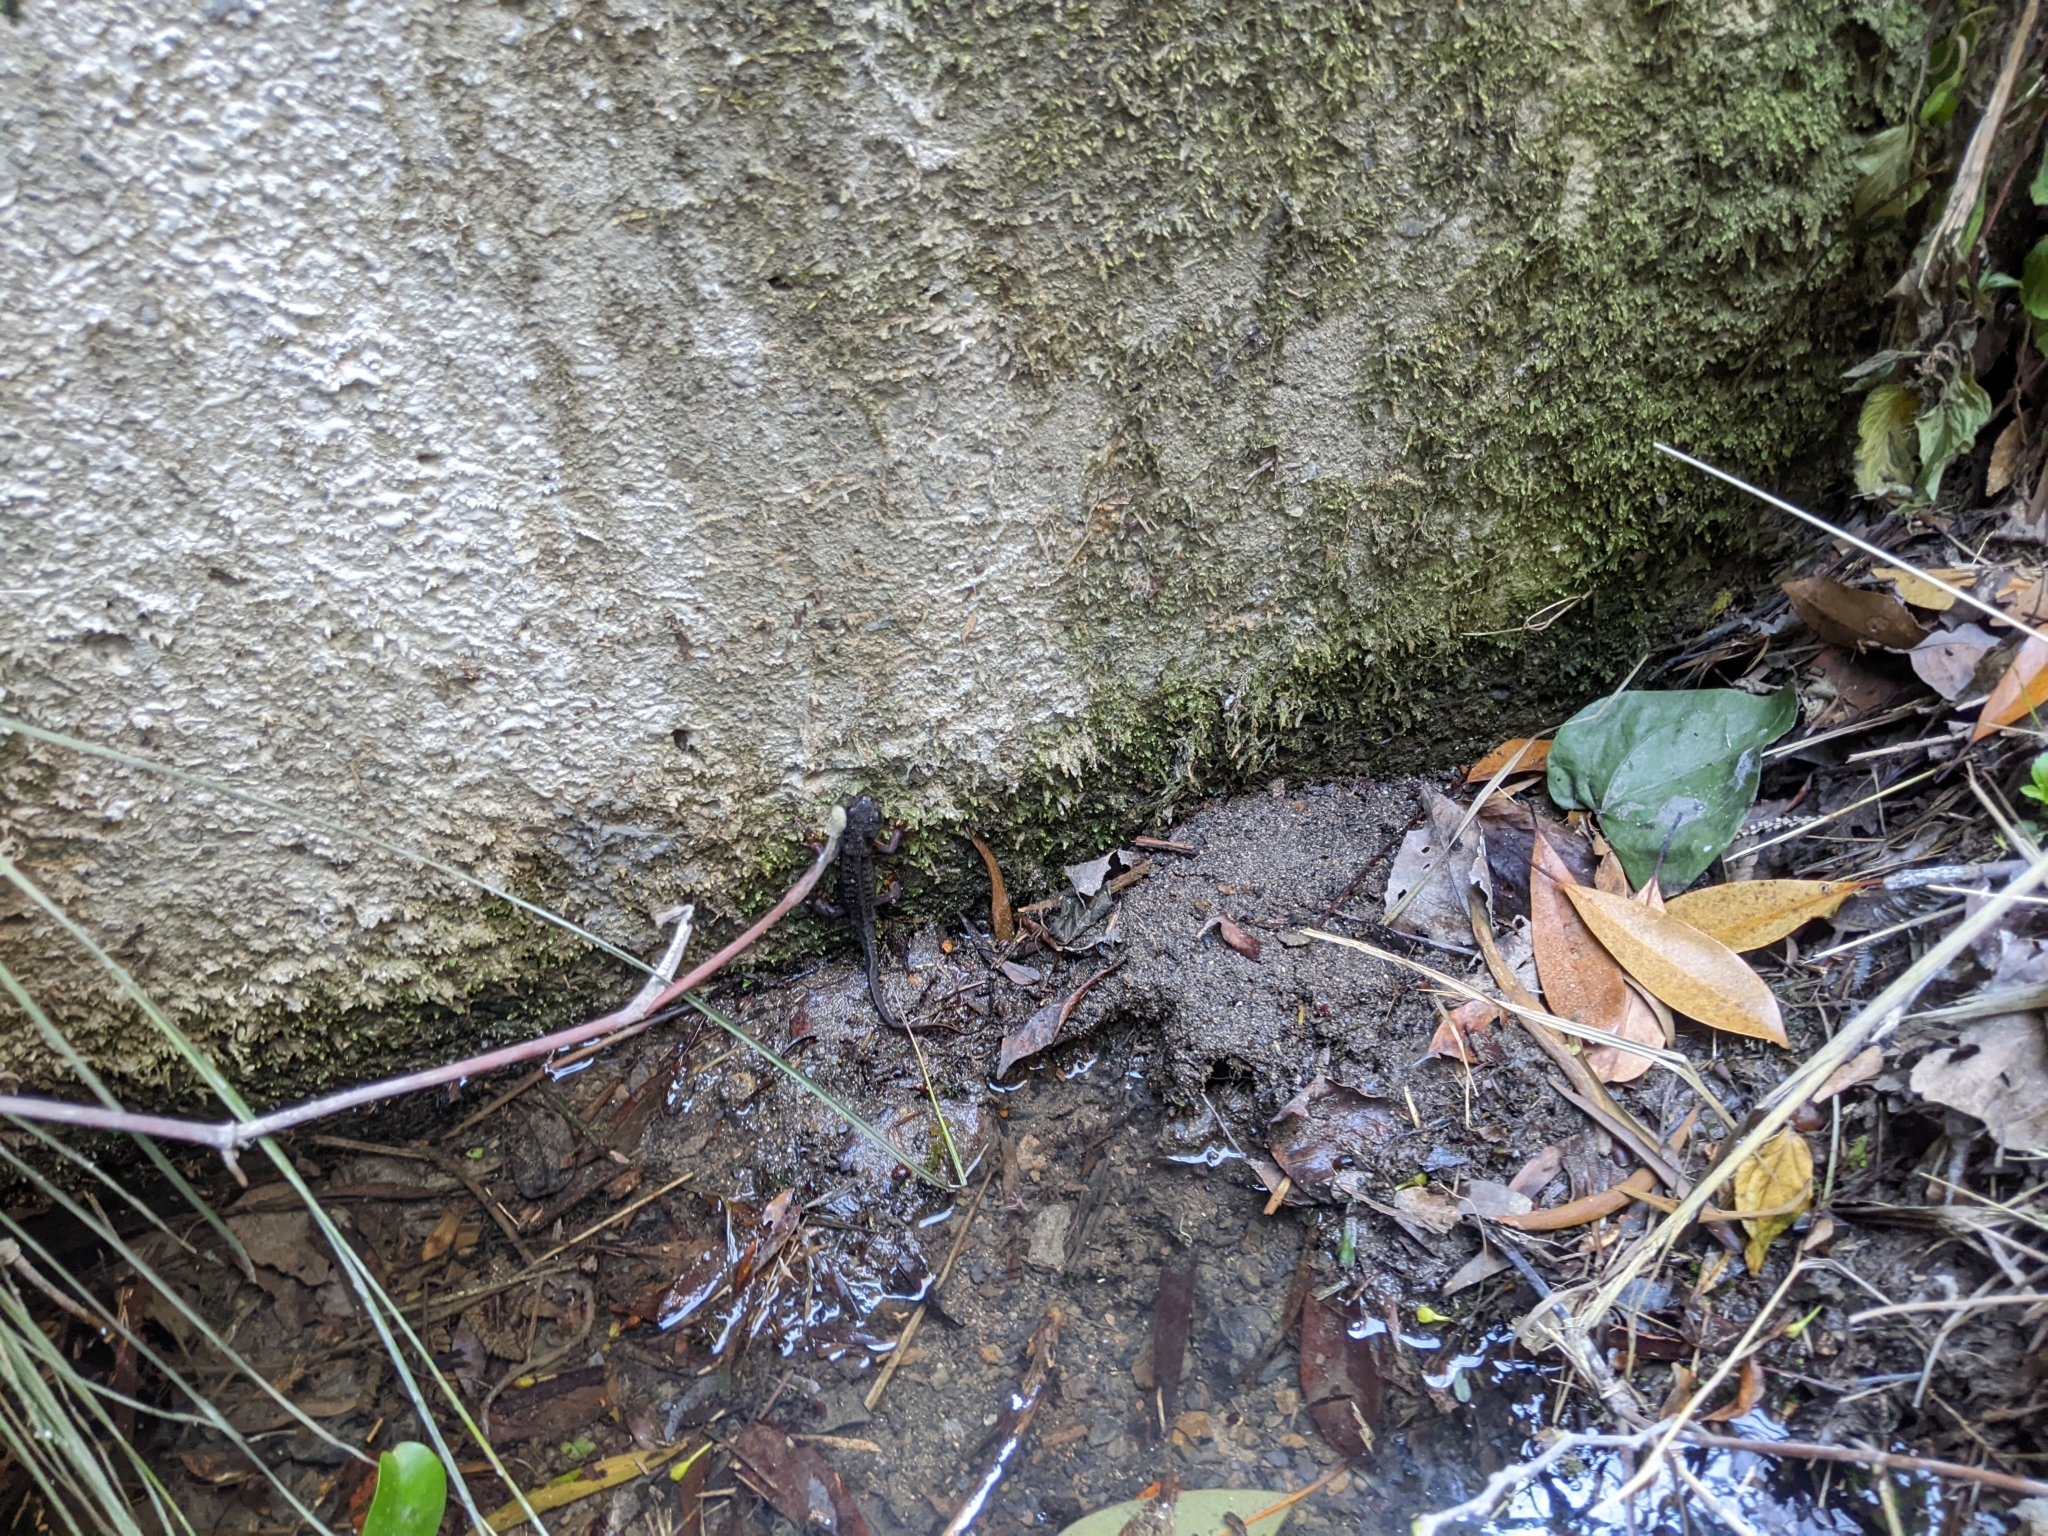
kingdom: Animalia
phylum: Chordata
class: Amphibia
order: Caudata
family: Salamandridae
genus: Cynops
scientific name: Cynops ensicauda
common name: Sword-tailed newt
